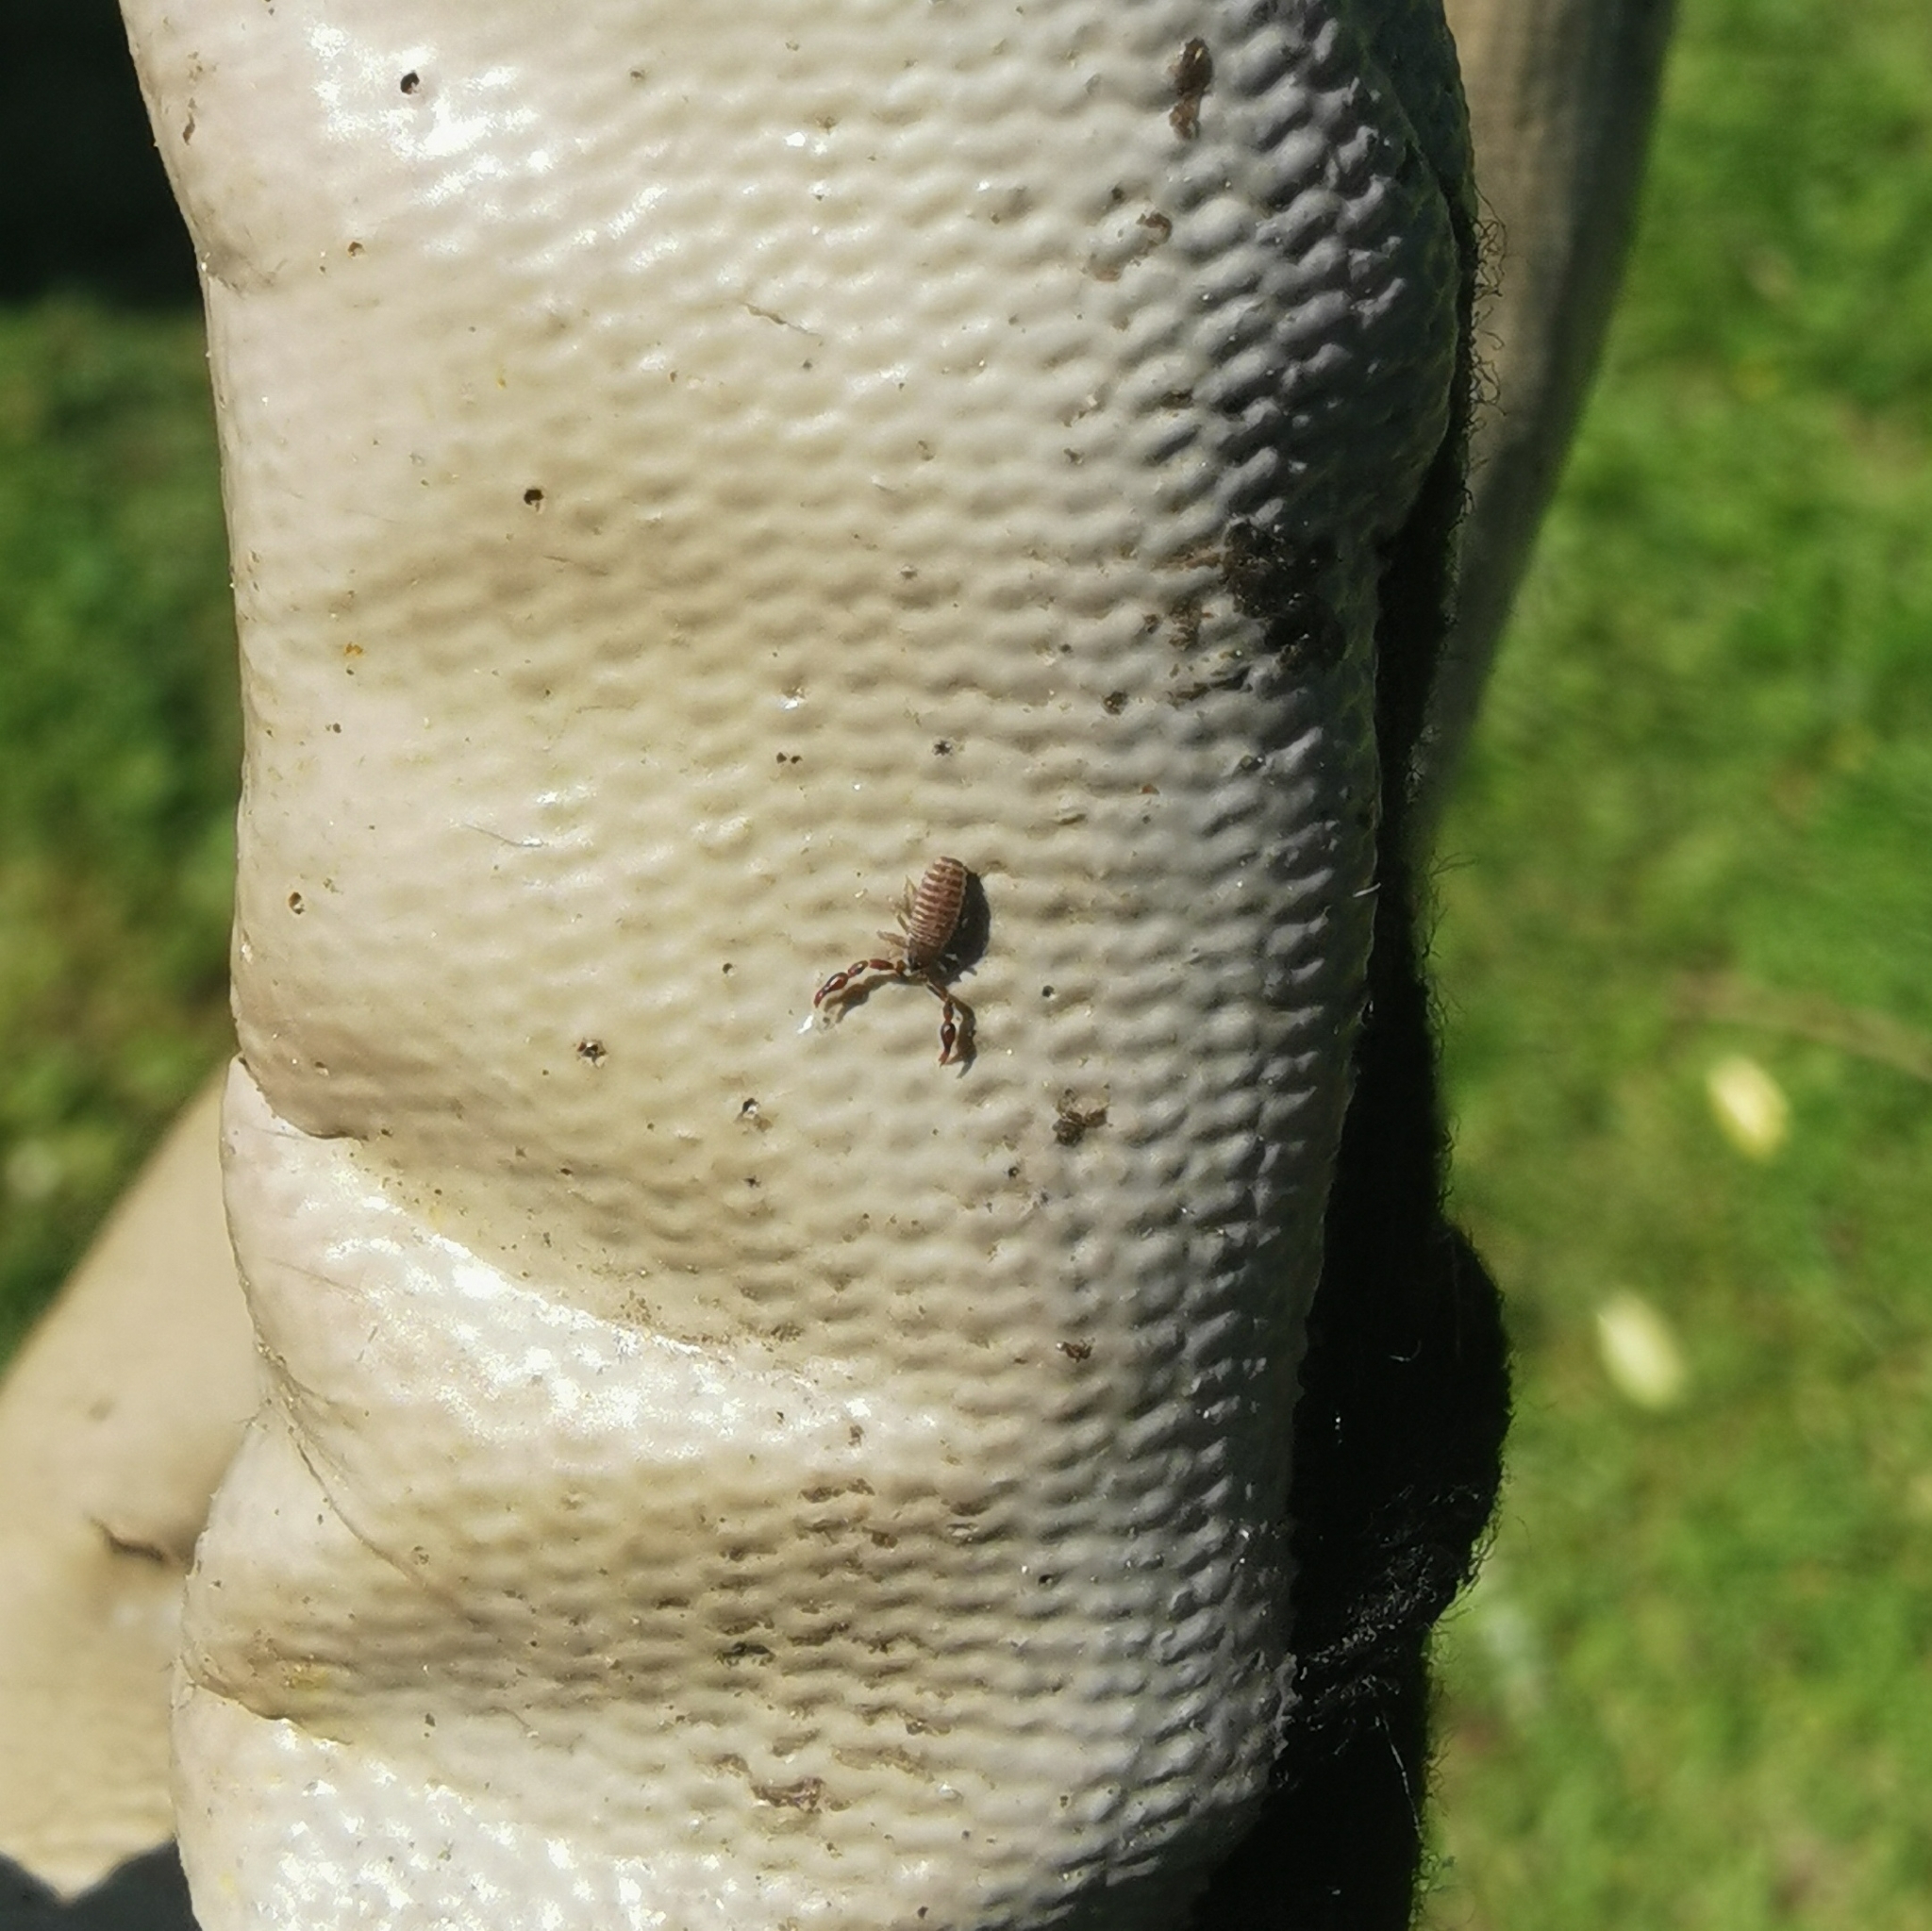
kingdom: Animalia
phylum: Arthropoda
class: Arachnida
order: Pseudoscorpiones
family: Cheliferidae
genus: Chelifer
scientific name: Chelifer cancroides
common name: House false-scorpion
